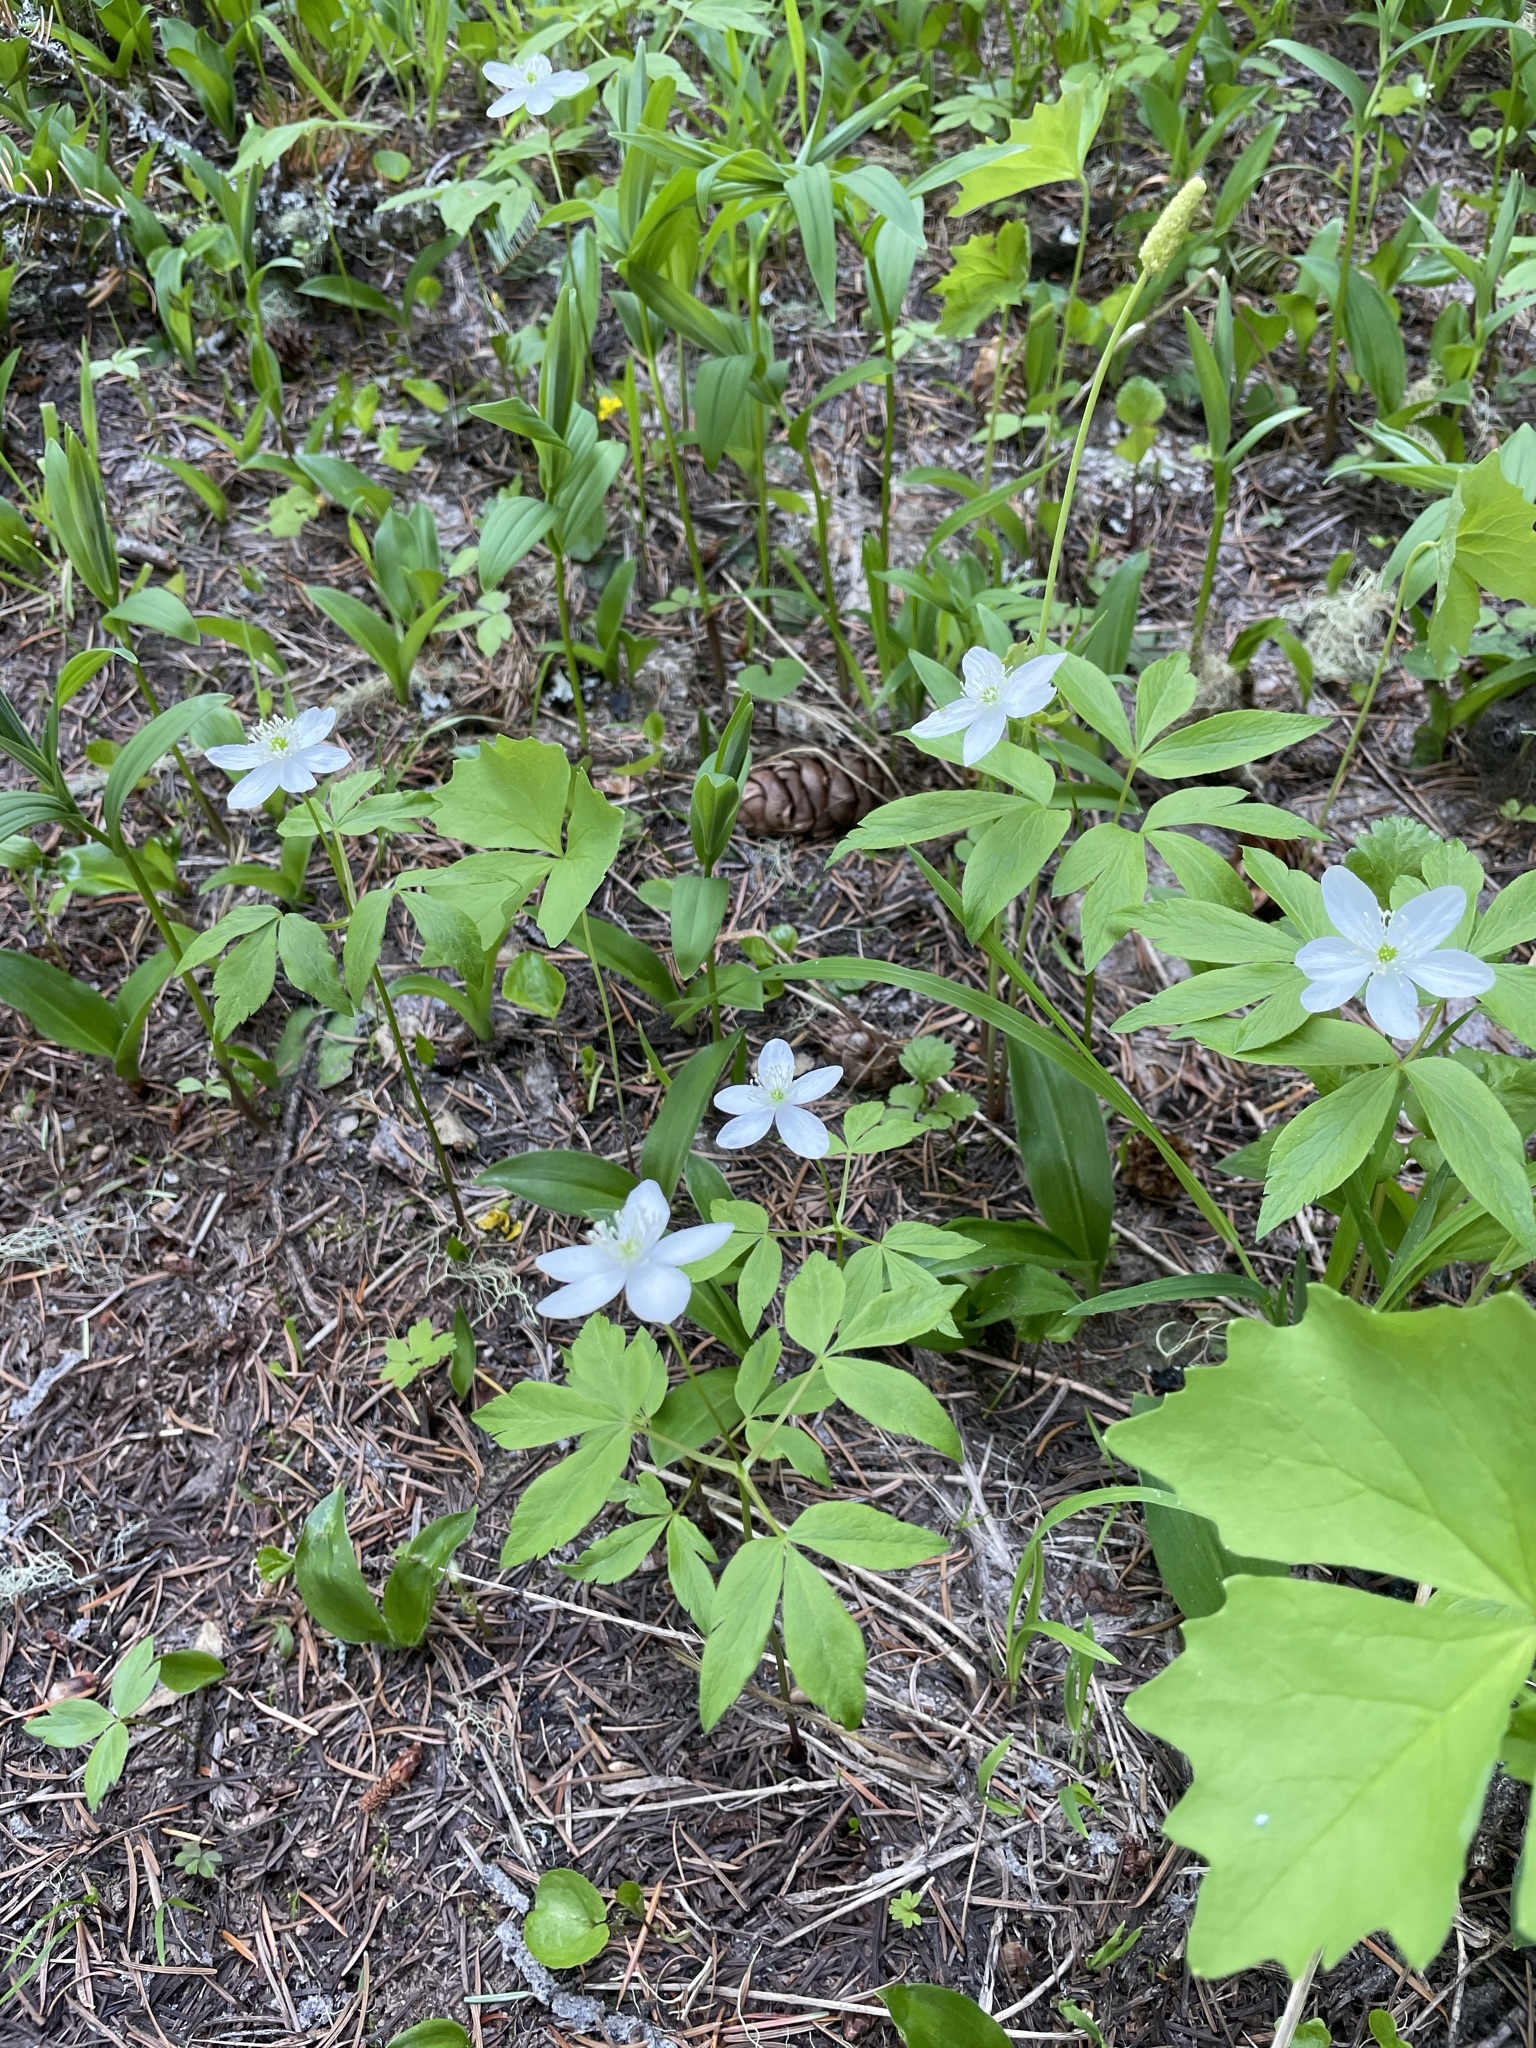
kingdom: Plantae
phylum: Tracheophyta
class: Magnoliopsida
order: Ranunculales
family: Ranunculaceae
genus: Anemone
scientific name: Anemone oregana
